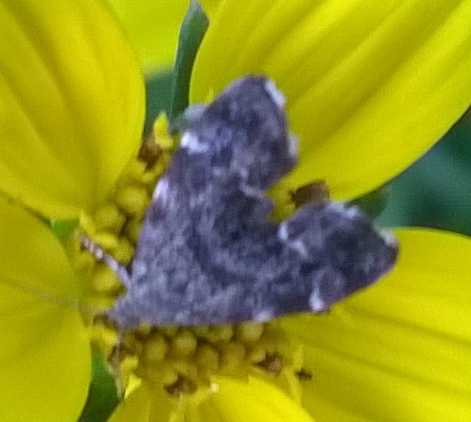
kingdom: Animalia
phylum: Arthropoda
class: Insecta
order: Lepidoptera
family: Choreutidae
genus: Anthophila
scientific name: Anthophila fabriciana
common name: Nettle-tap
